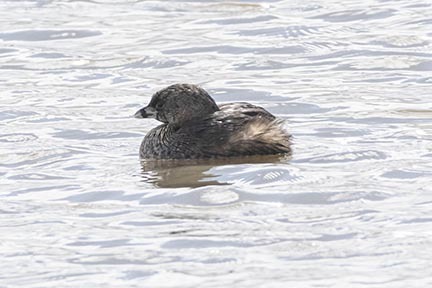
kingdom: Animalia
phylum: Chordata
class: Aves
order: Podicipediformes
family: Podicipedidae
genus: Podilymbus
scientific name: Podilymbus podiceps
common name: Pied-billed grebe
